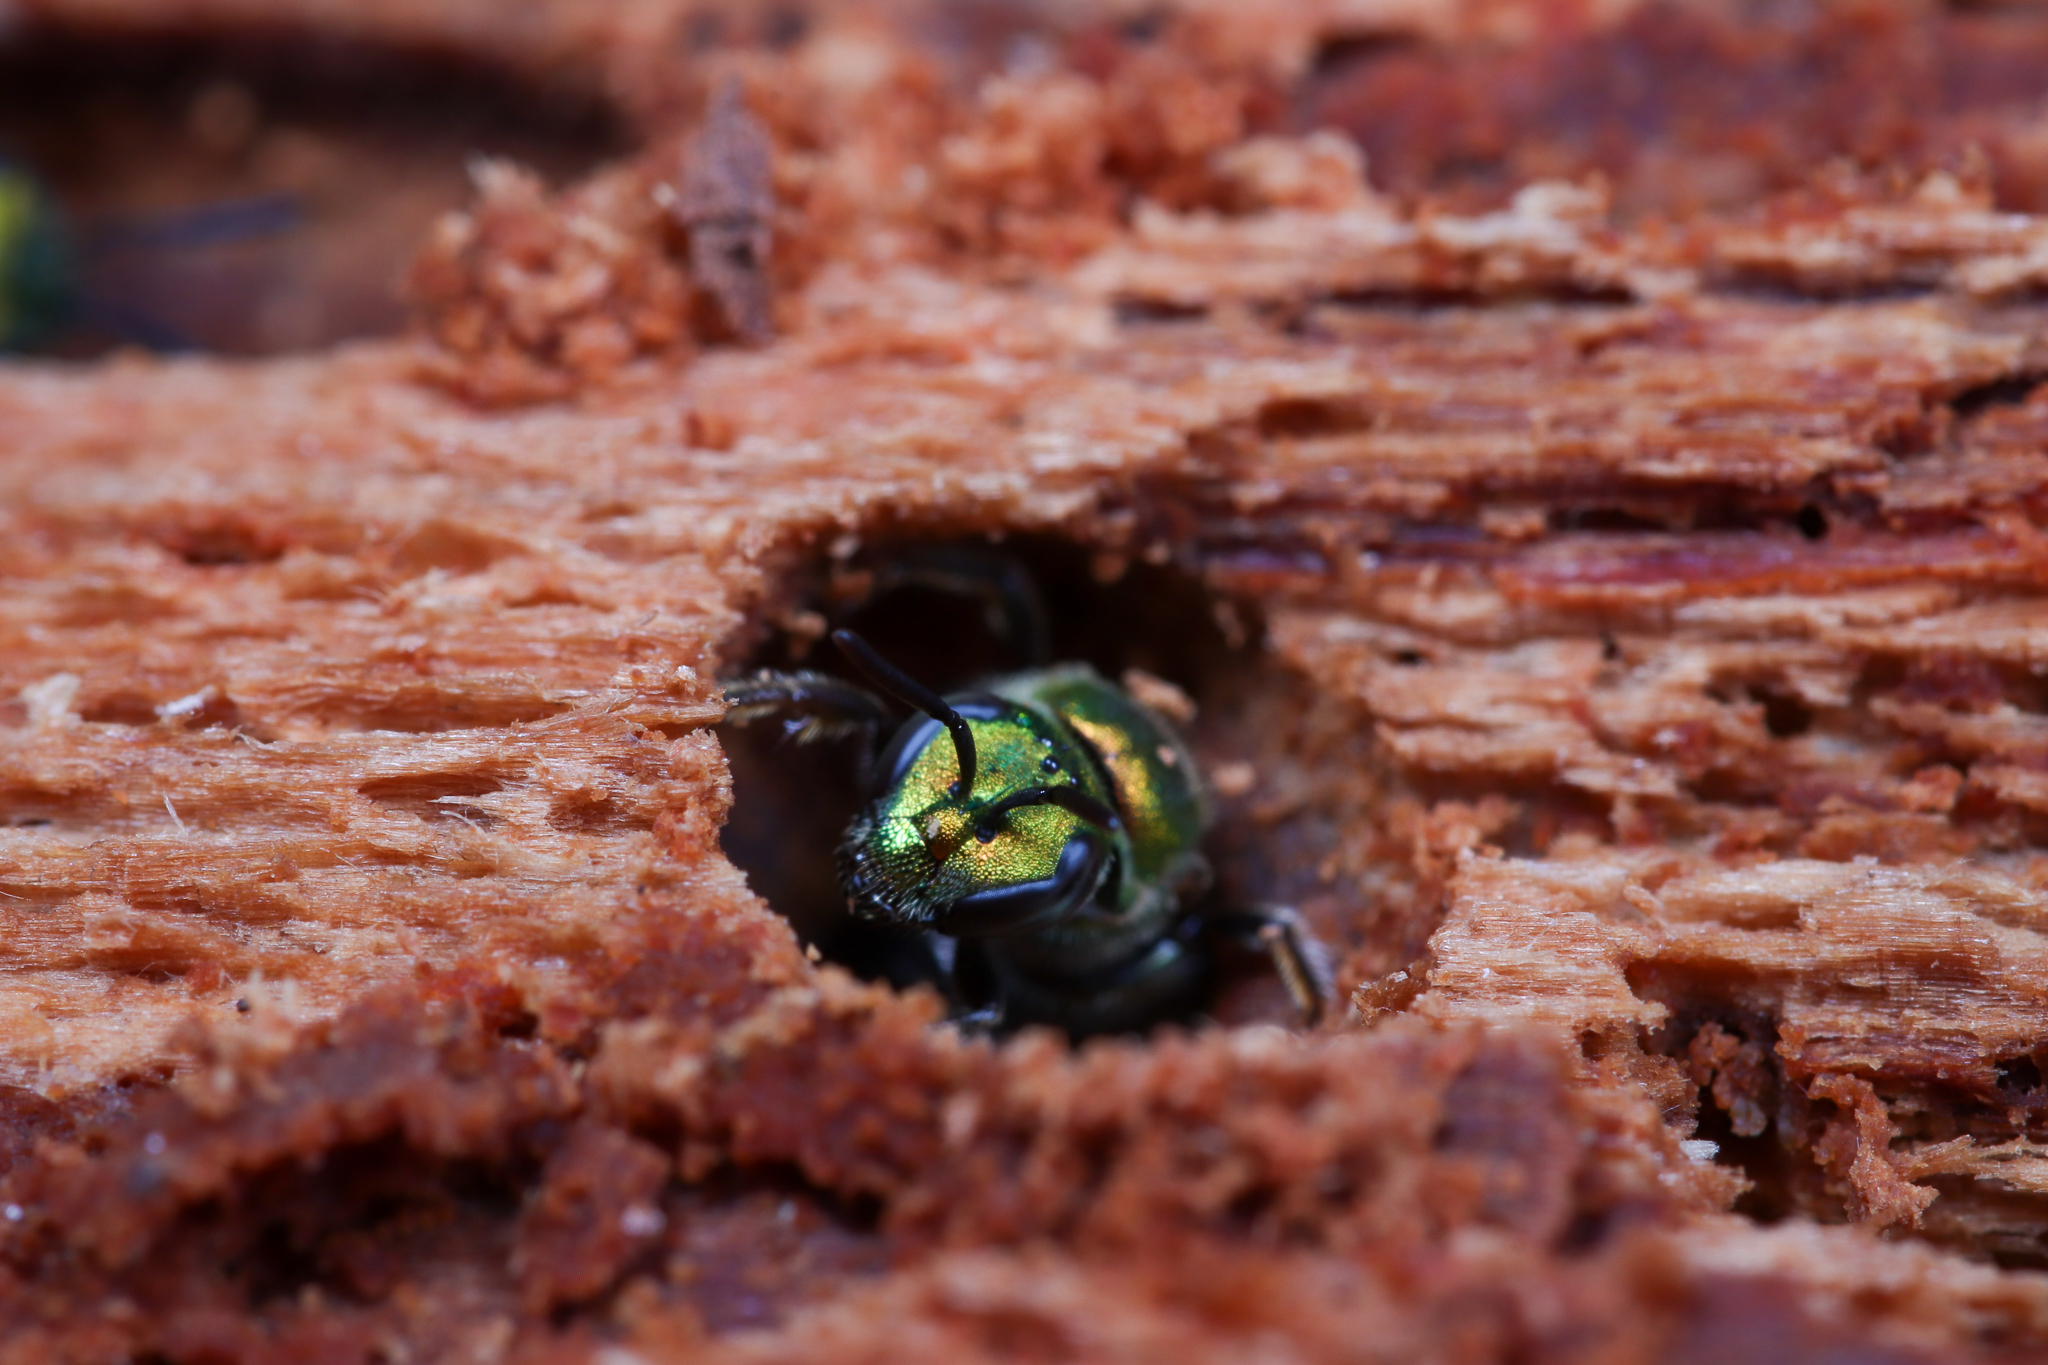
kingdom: Animalia
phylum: Arthropoda
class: Insecta
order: Hymenoptera
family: Halictidae
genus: Augochlora
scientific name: Augochlora pura
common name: Pure green sweat bee
